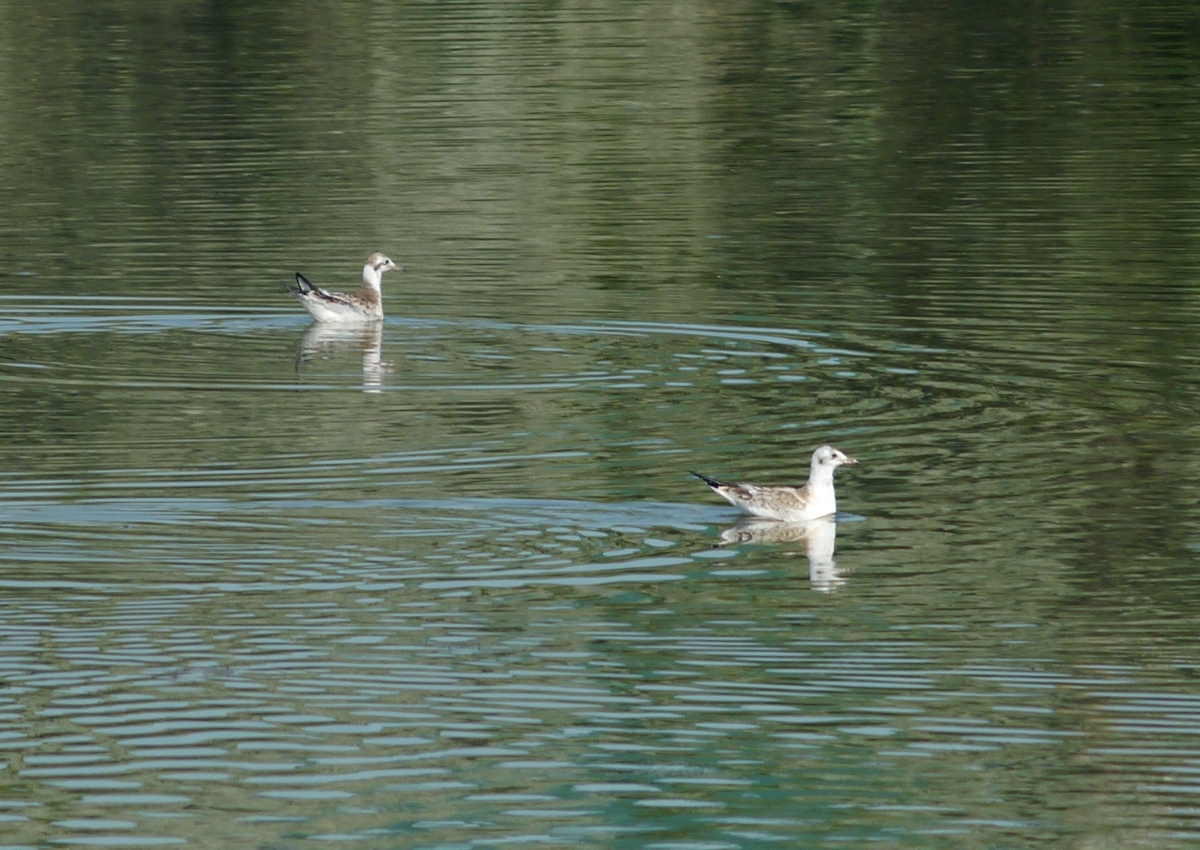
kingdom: Animalia
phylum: Chordata
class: Aves
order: Charadriiformes
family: Laridae
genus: Chroicocephalus
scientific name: Chroicocephalus ridibundus
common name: Black-headed gull
